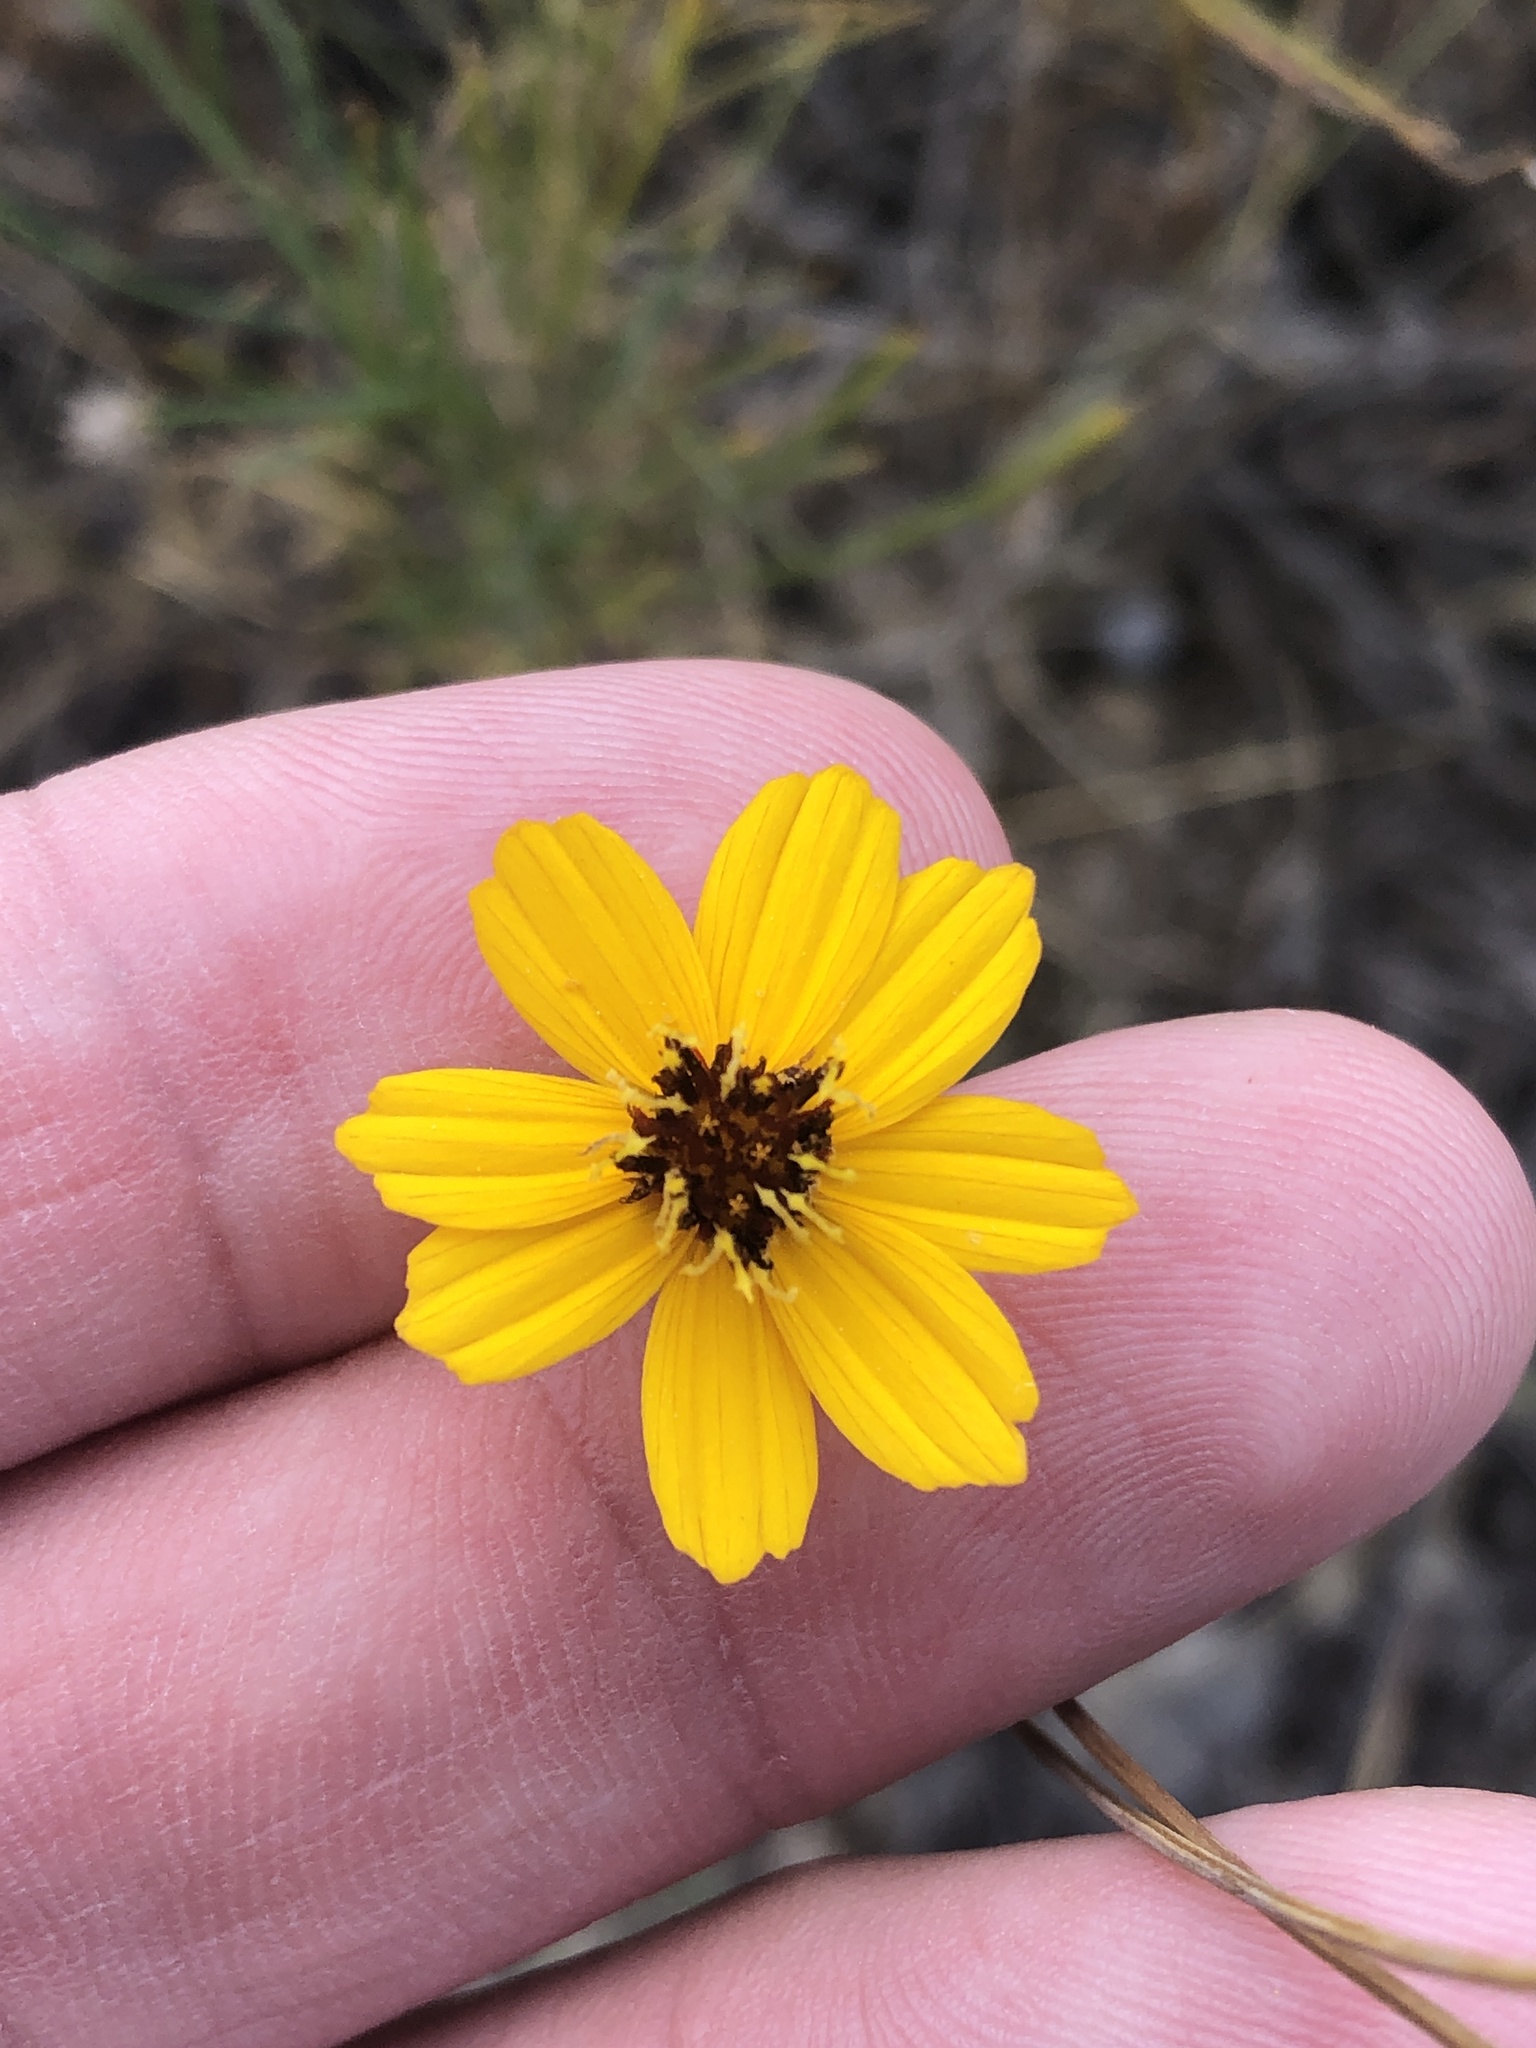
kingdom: Plantae
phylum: Tracheophyta
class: Magnoliopsida
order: Asterales
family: Asteraceae
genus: Thelesperma
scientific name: Thelesperma filifolium
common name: Stiff greenthread
